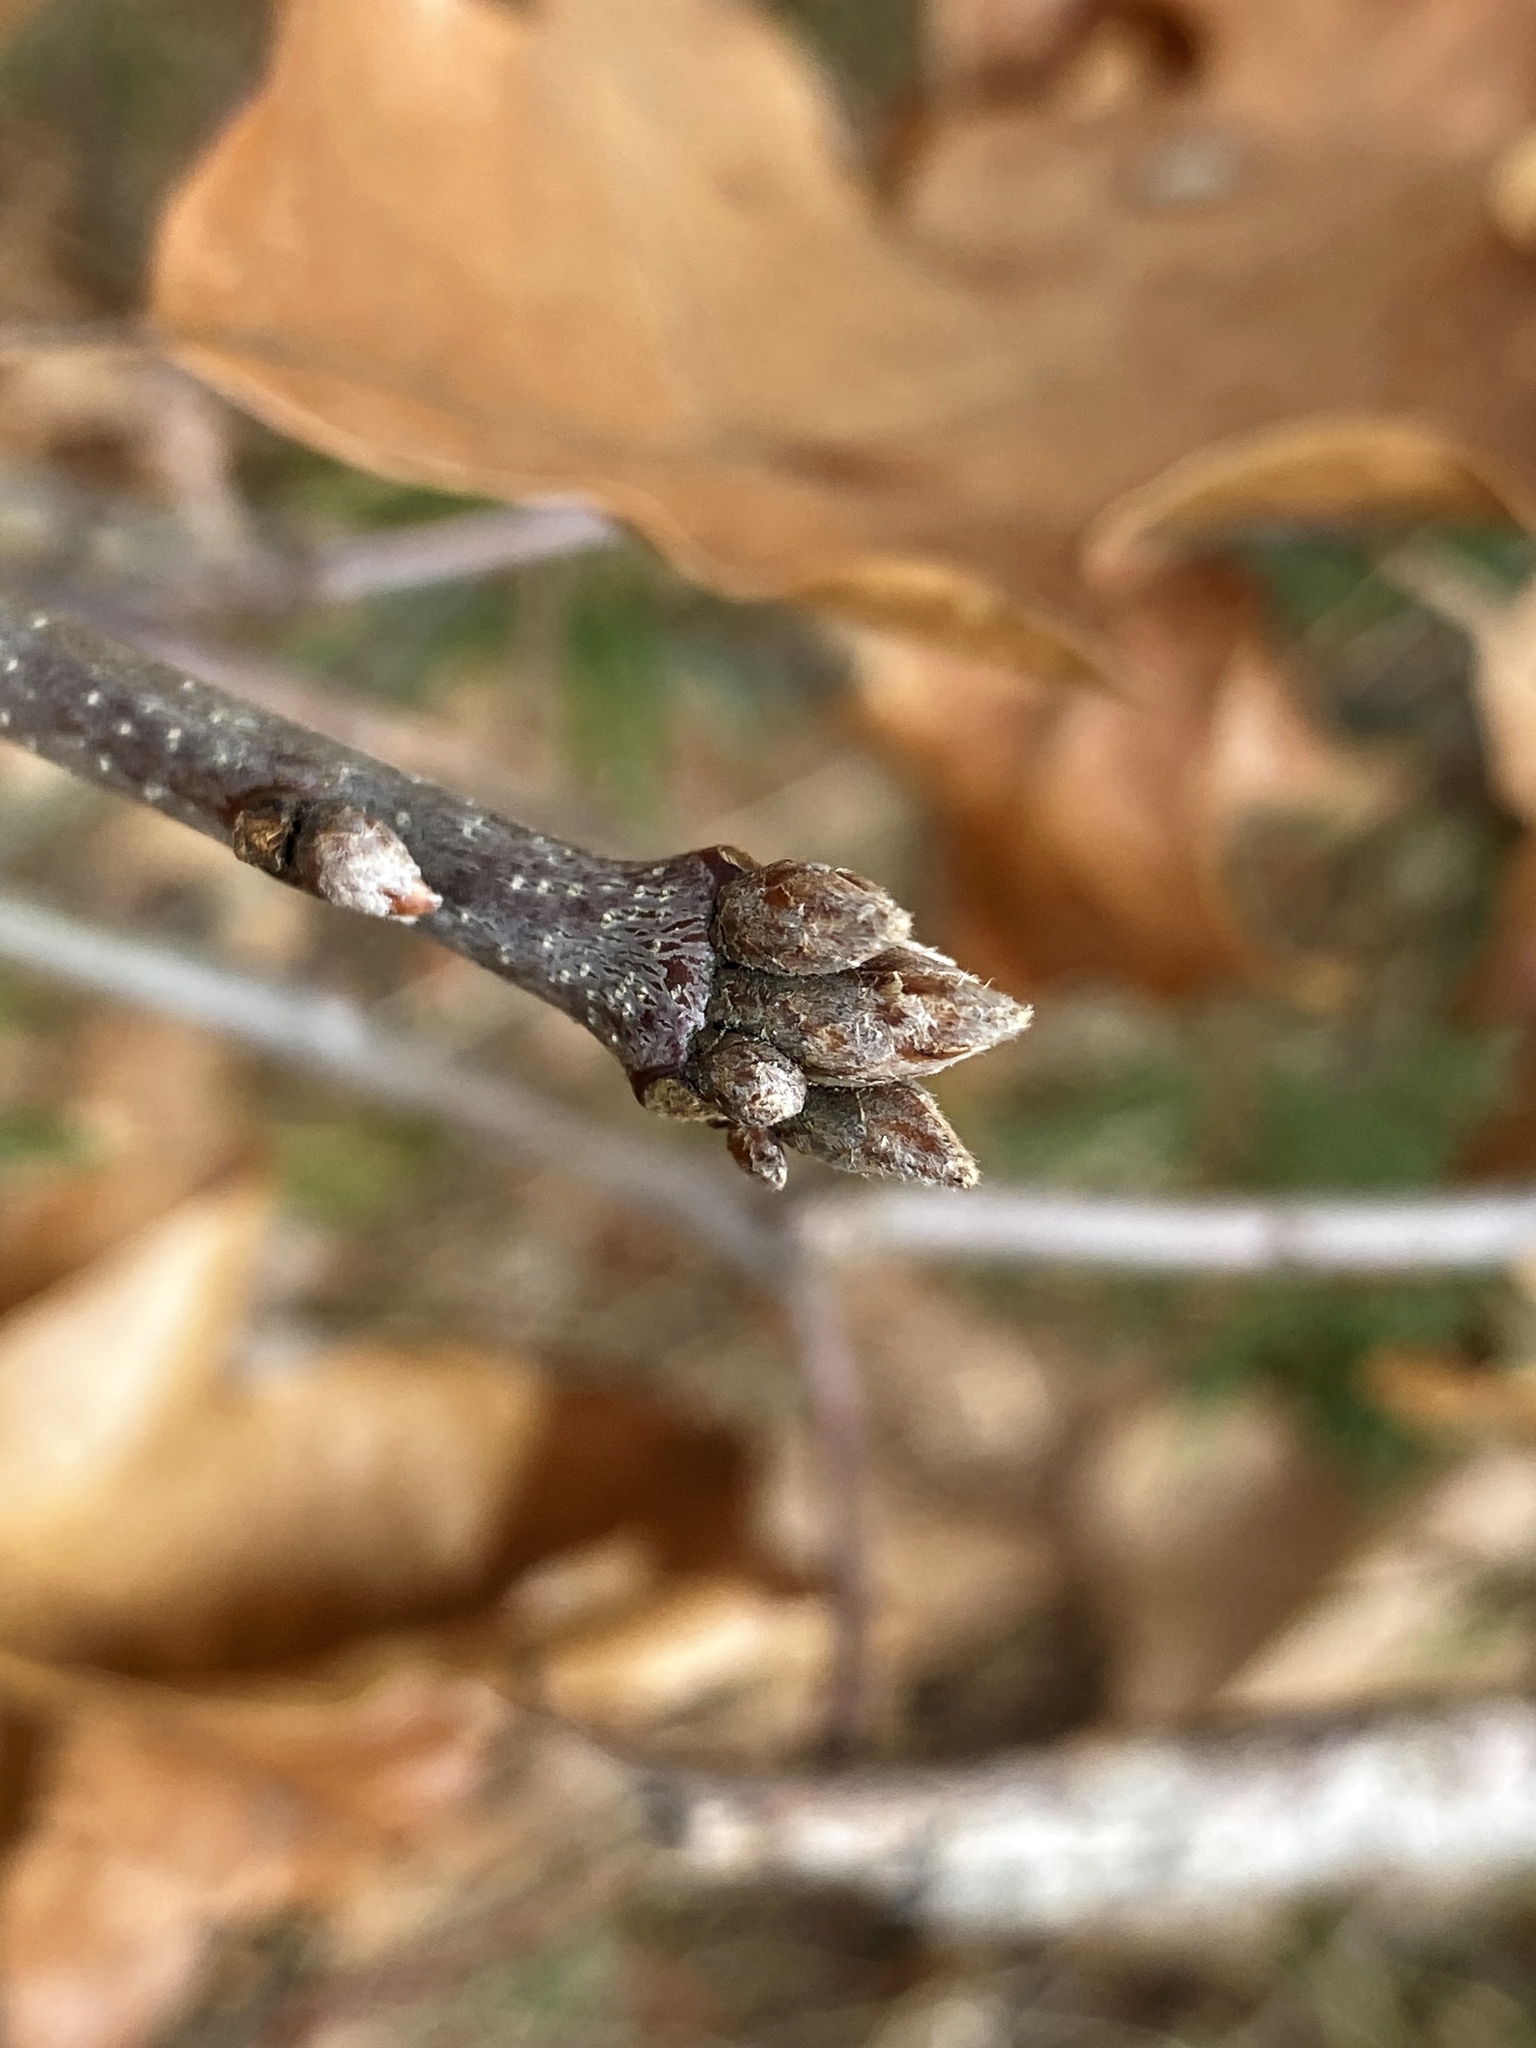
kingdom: Plantae
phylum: Tracheophyta
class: Magnoliopsida
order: Fagales
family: Fagaceae
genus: Quercus
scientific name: Quercus velutina
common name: Black oak
